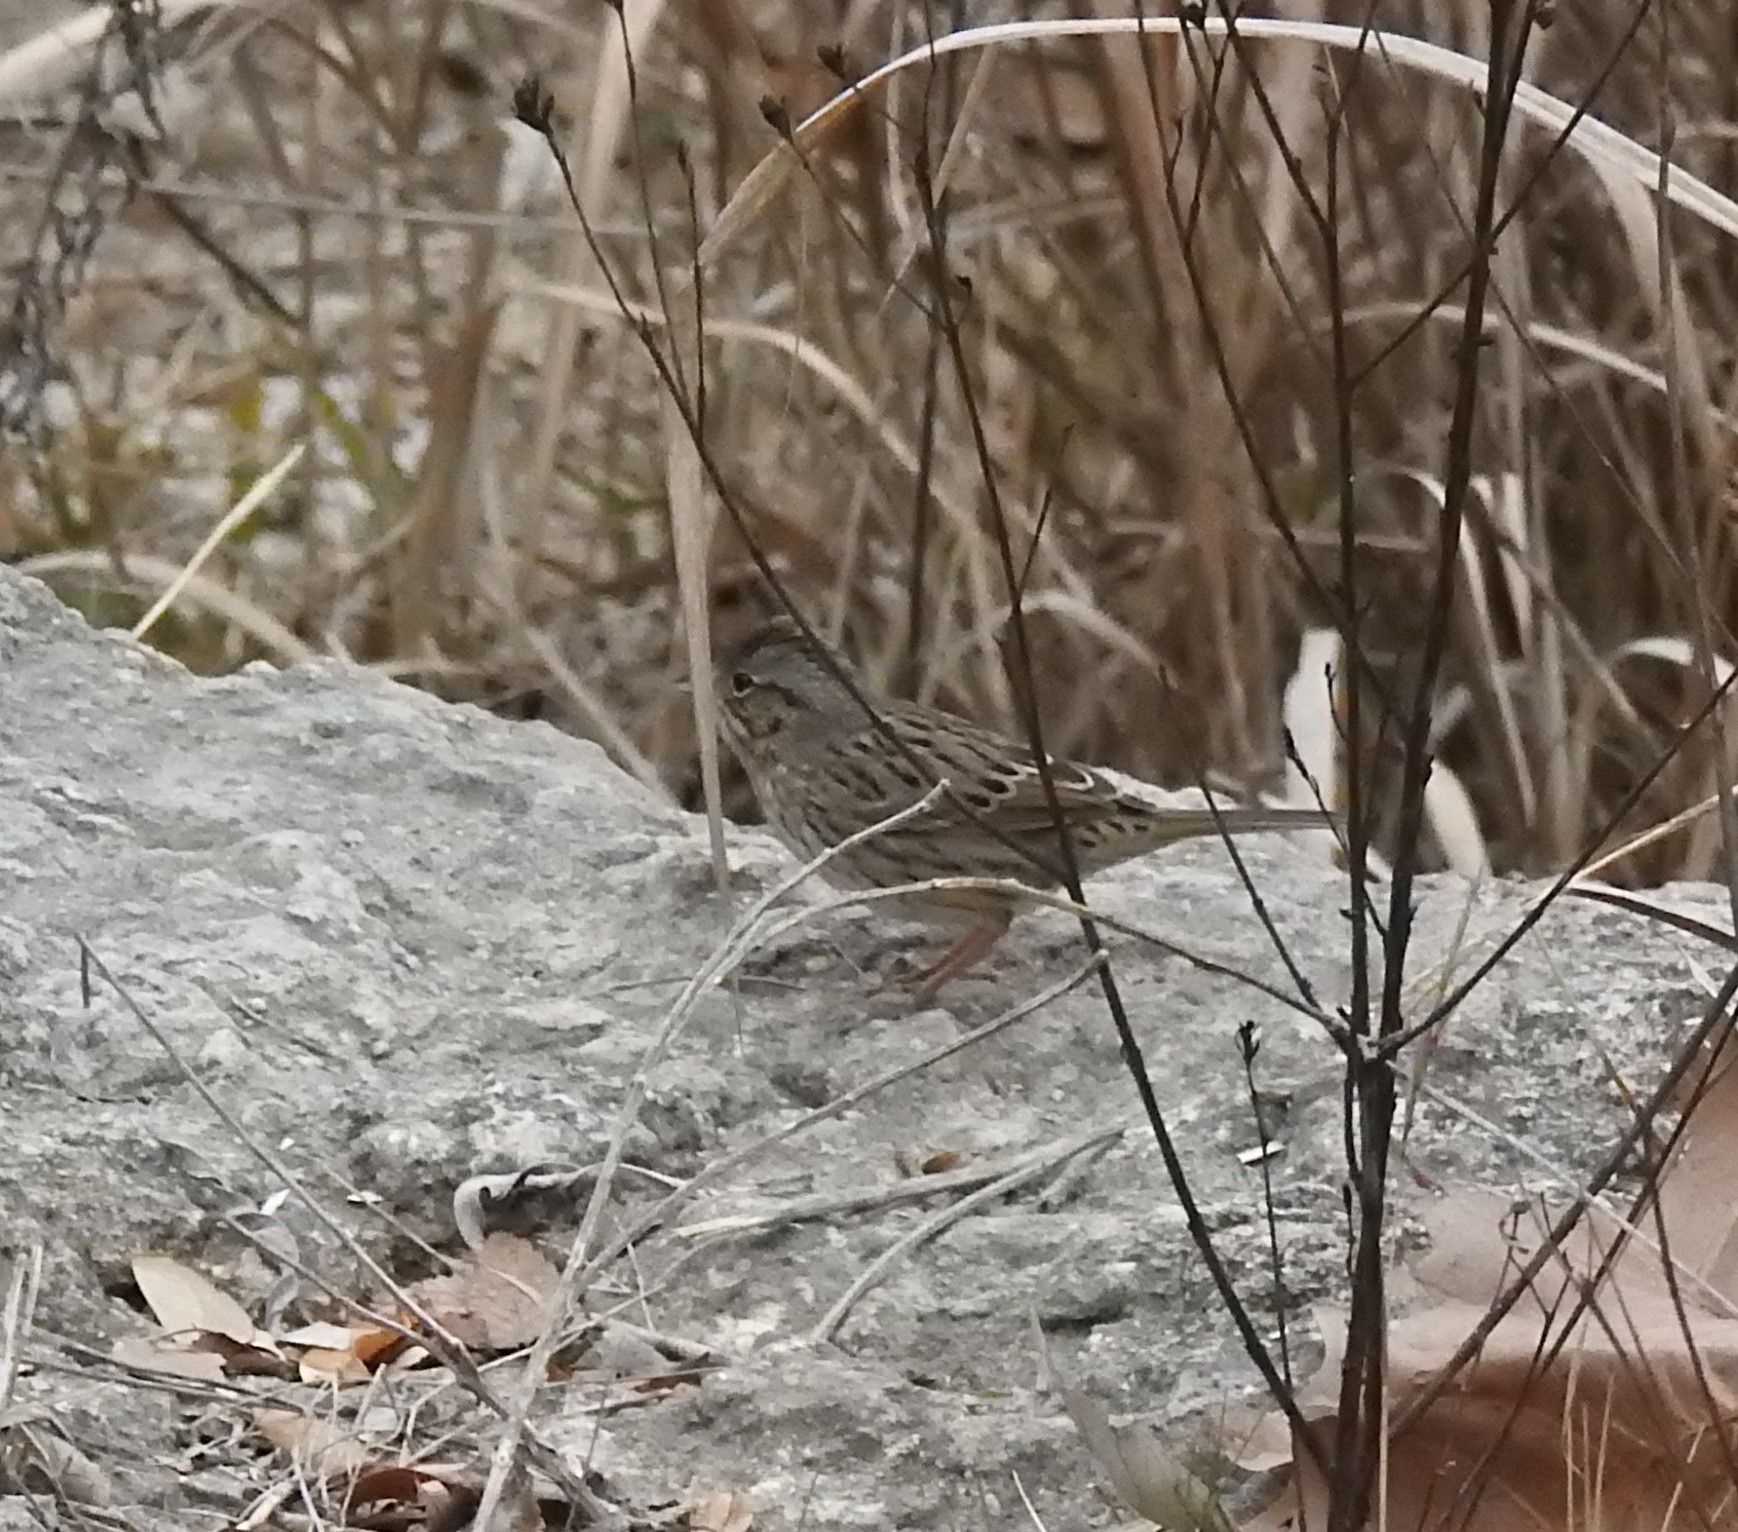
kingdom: Animalia
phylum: Chordata
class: Aves
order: Passeriformes
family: Passerellidae
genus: Melospiza
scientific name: Melospiza lincolnii
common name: Lincoln's sparrow
